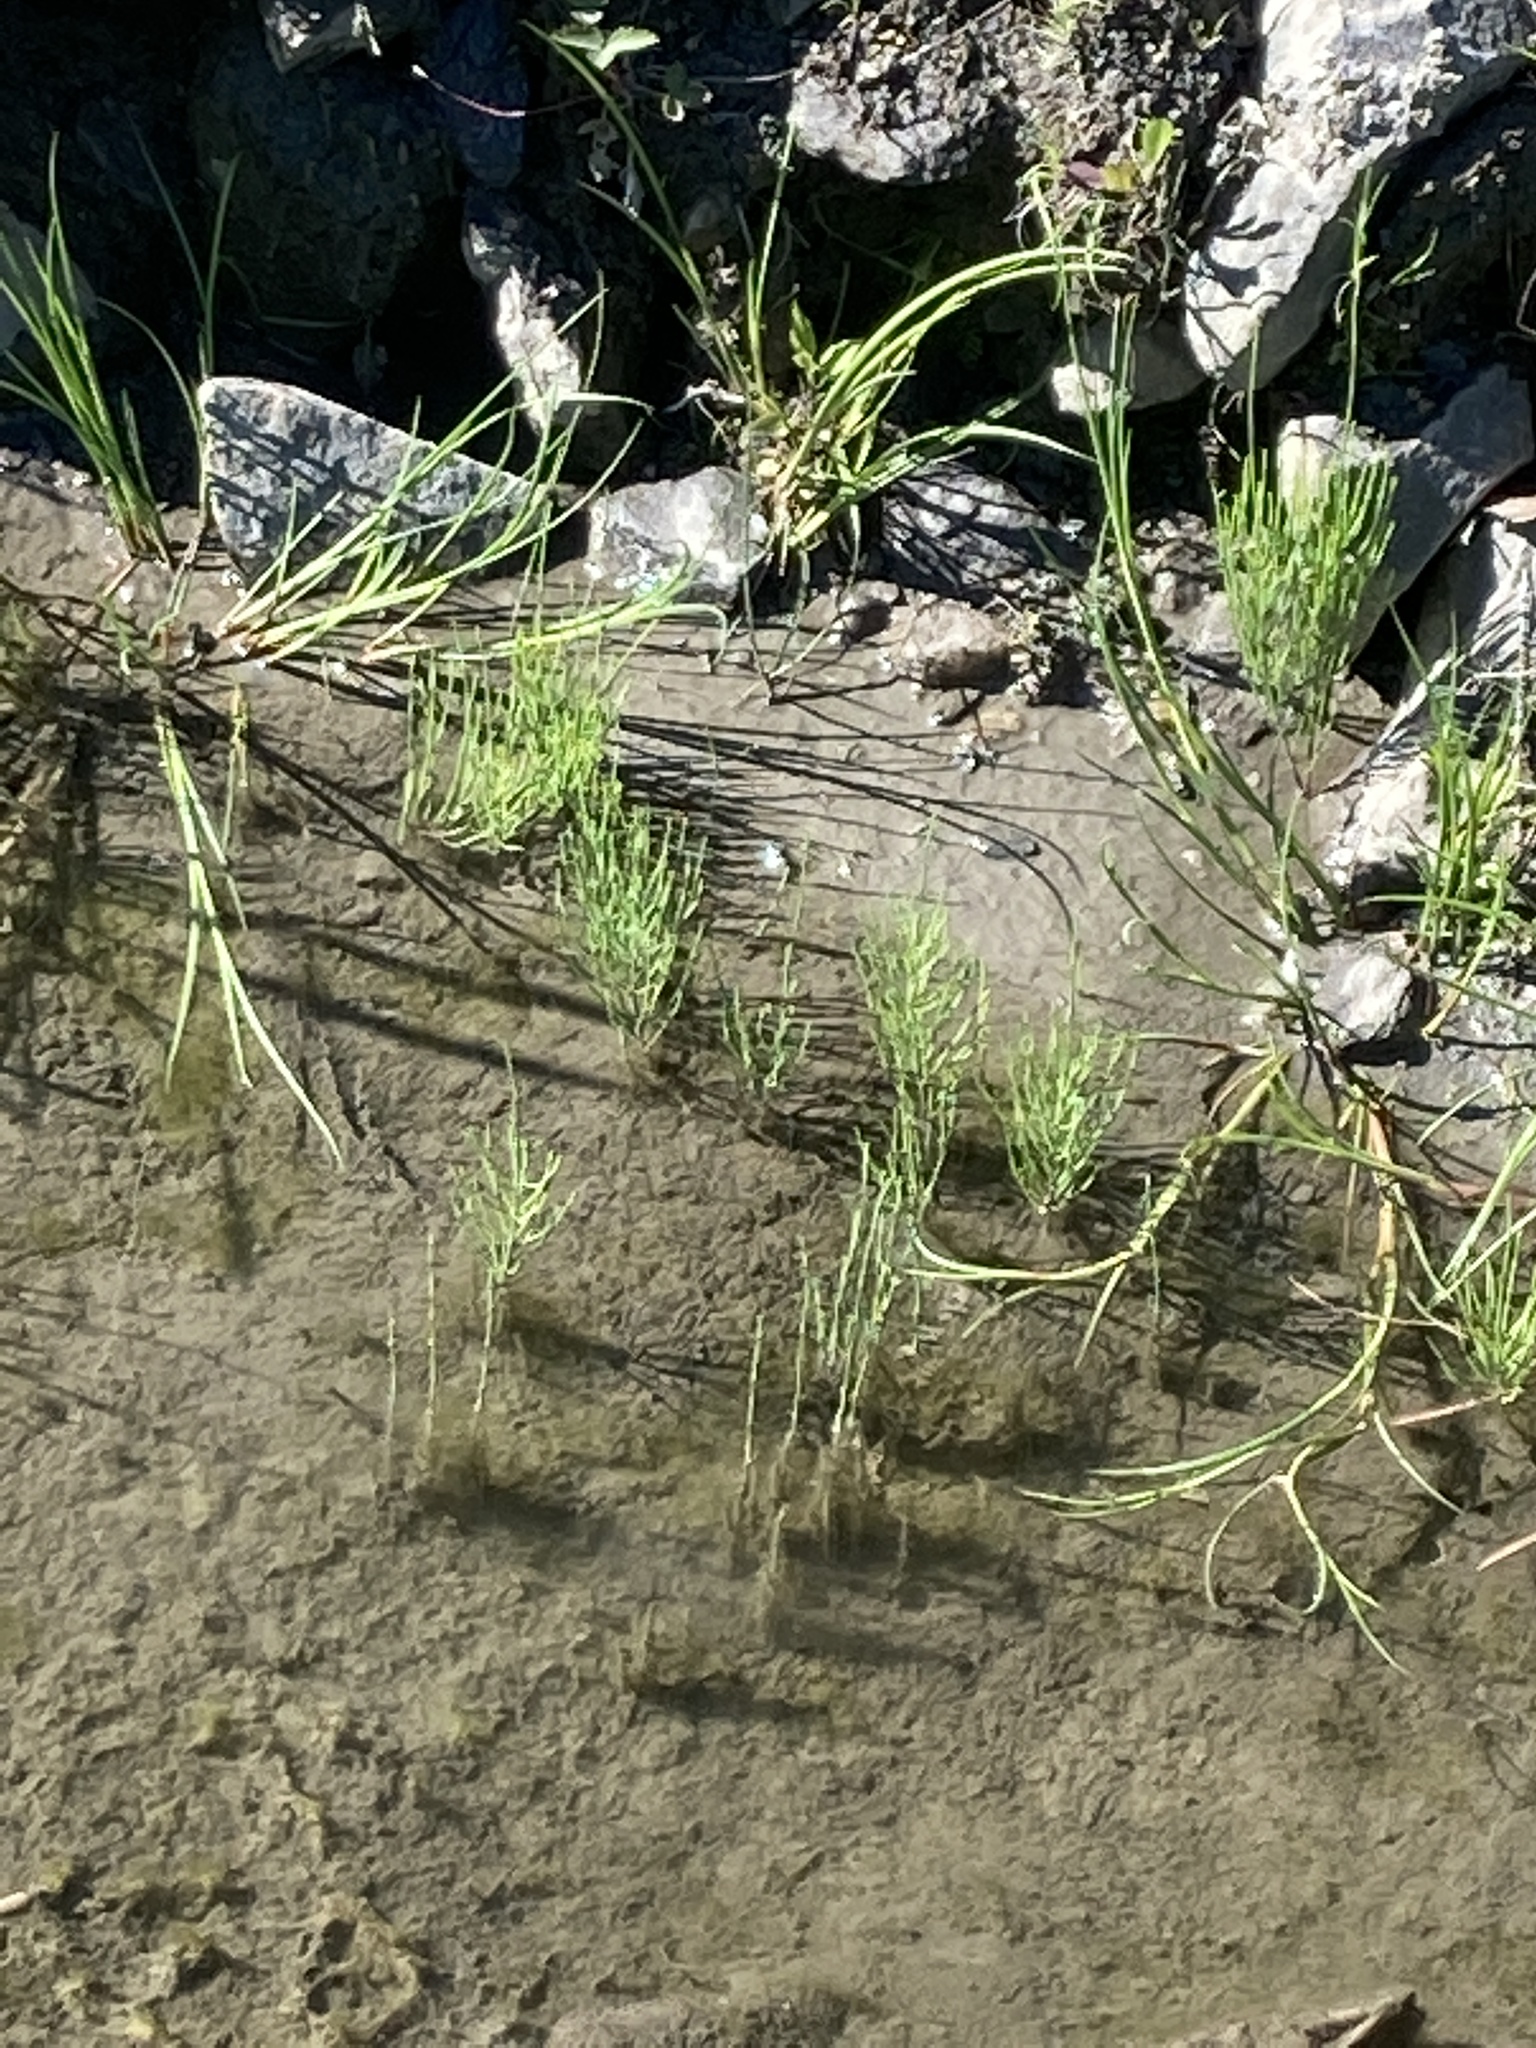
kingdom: Plantae
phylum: Tracheophyta
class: Polypodiopsida
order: Equisetales
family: Equisetaceae
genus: Equisetum
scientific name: Equisetum arvense
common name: Field horsetail
